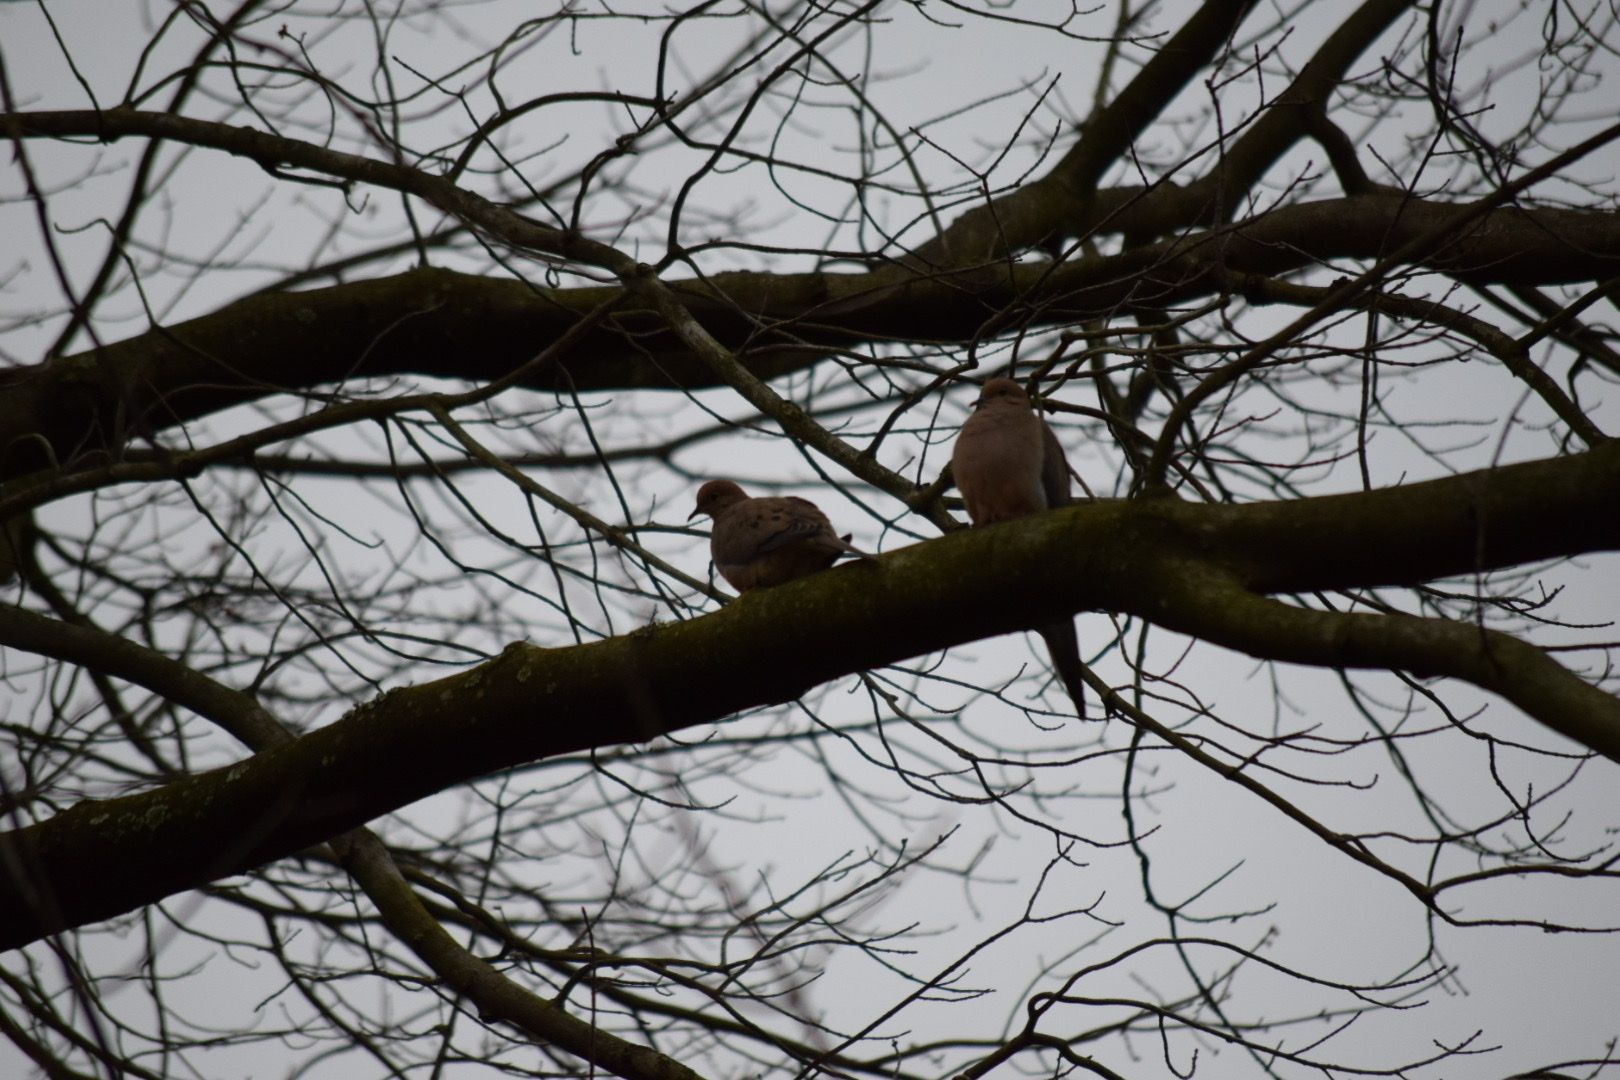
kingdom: Animalia
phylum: Chordata
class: Aves
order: Columbiformes
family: Columbidae
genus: Zenaida
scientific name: Zenaida macroura
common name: Mourning dove
